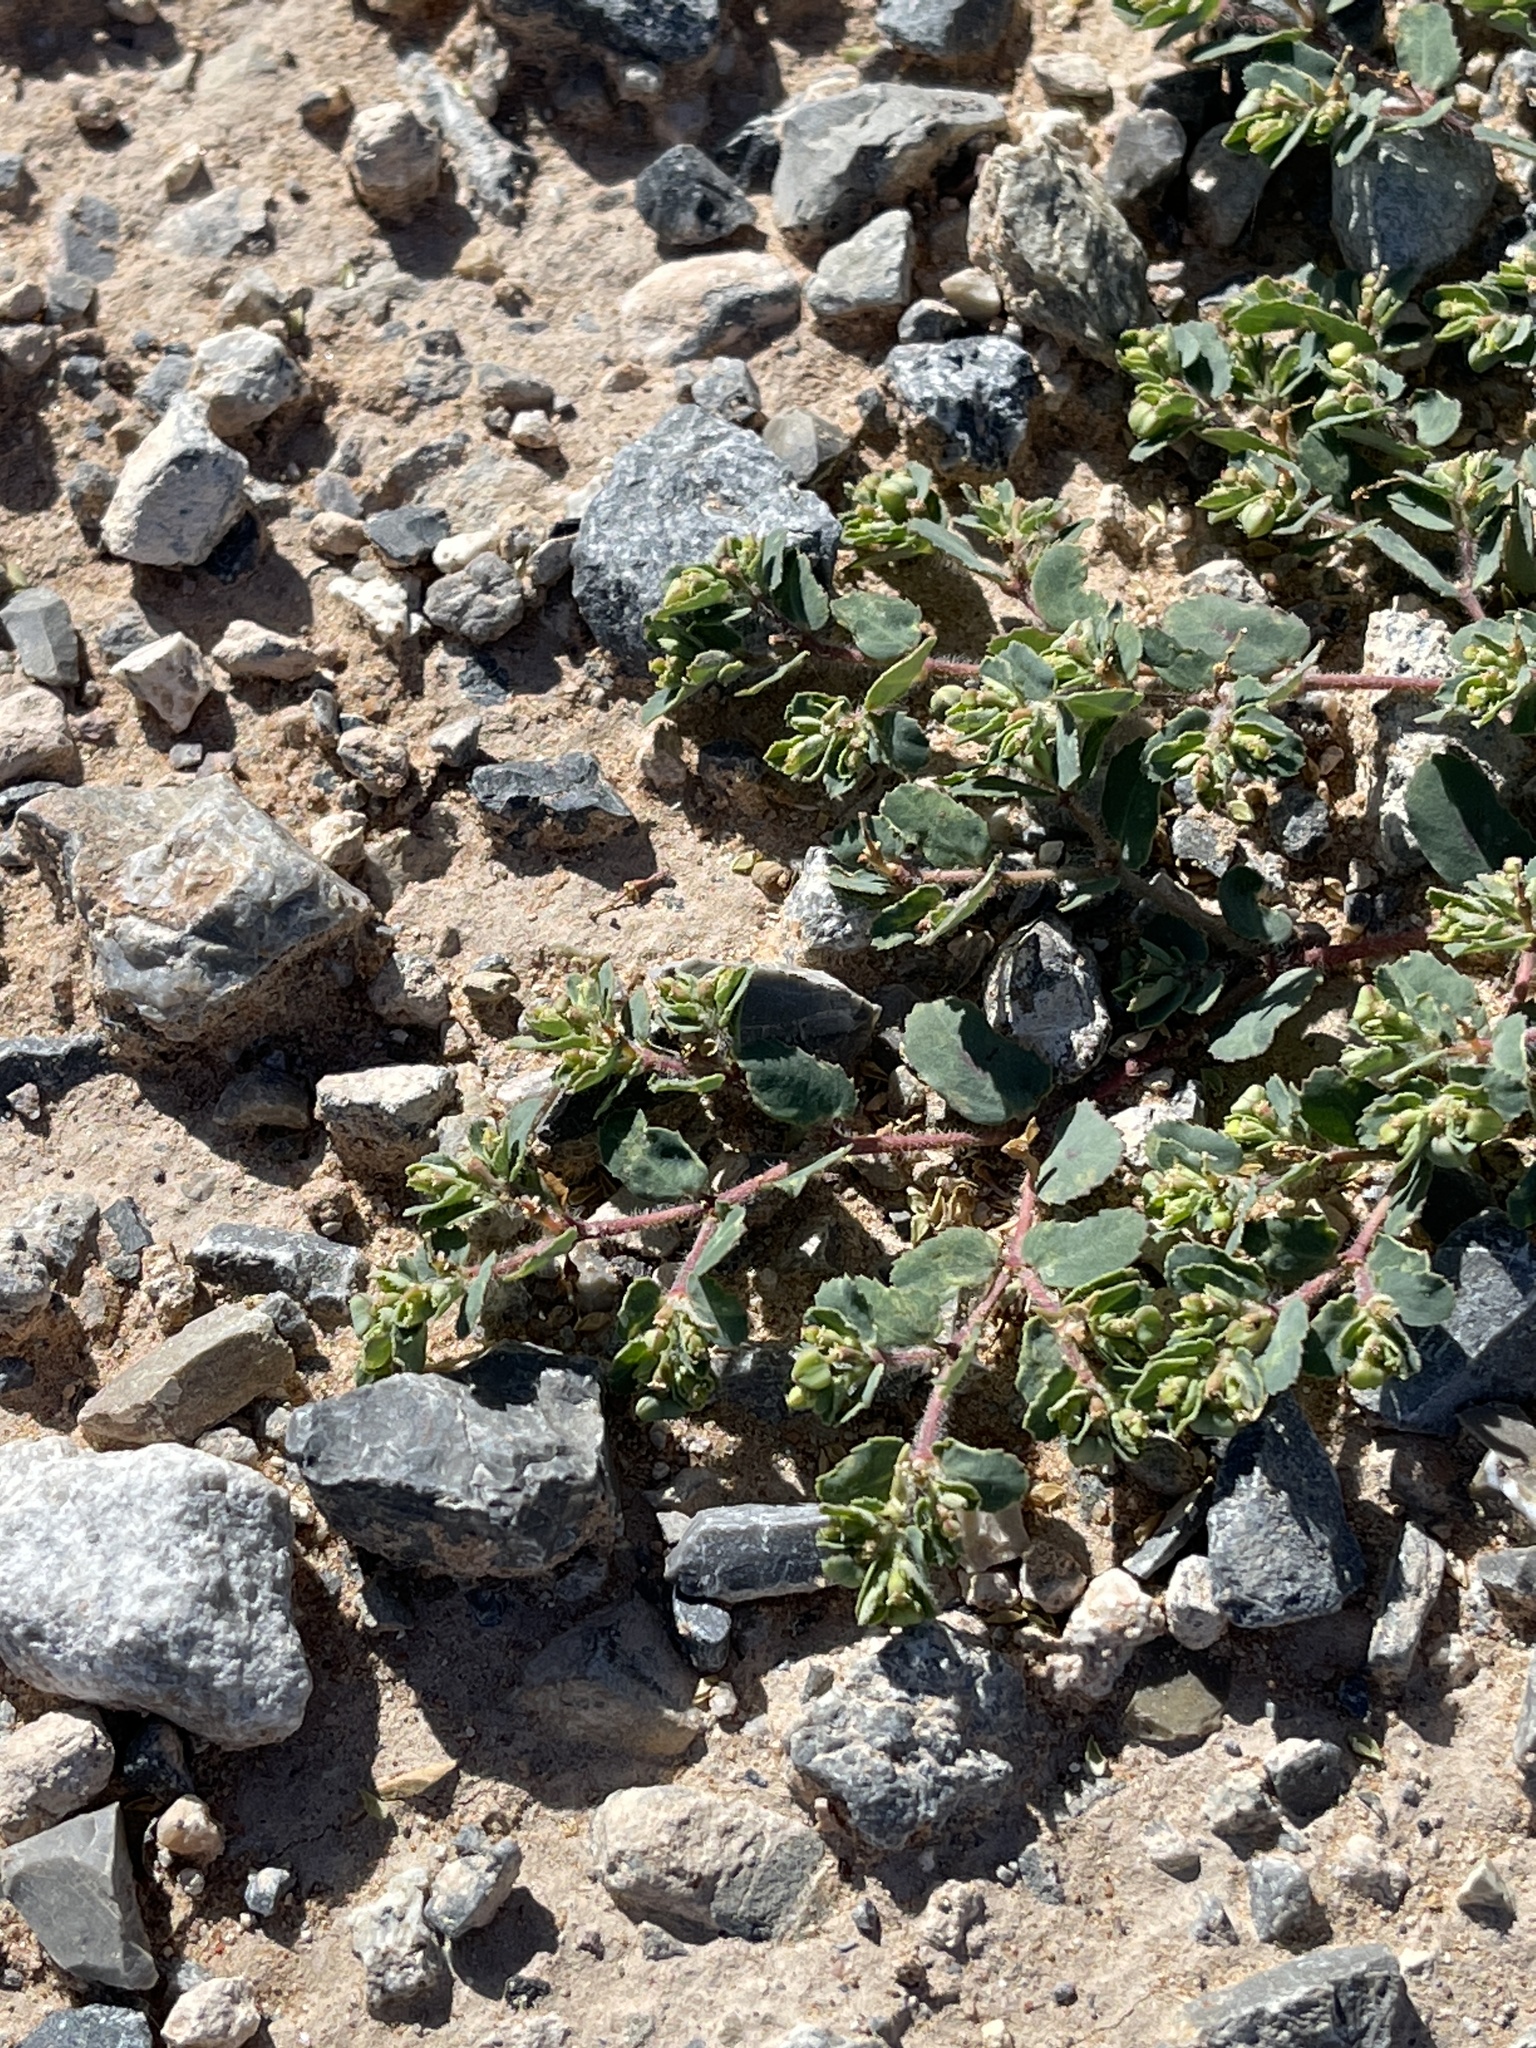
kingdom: Plantae
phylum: Tracheophyta
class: Magnoliopsida
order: Malpighiales
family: Euphorbiaceae
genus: Euphorbia
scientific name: Euphorbia serrula
